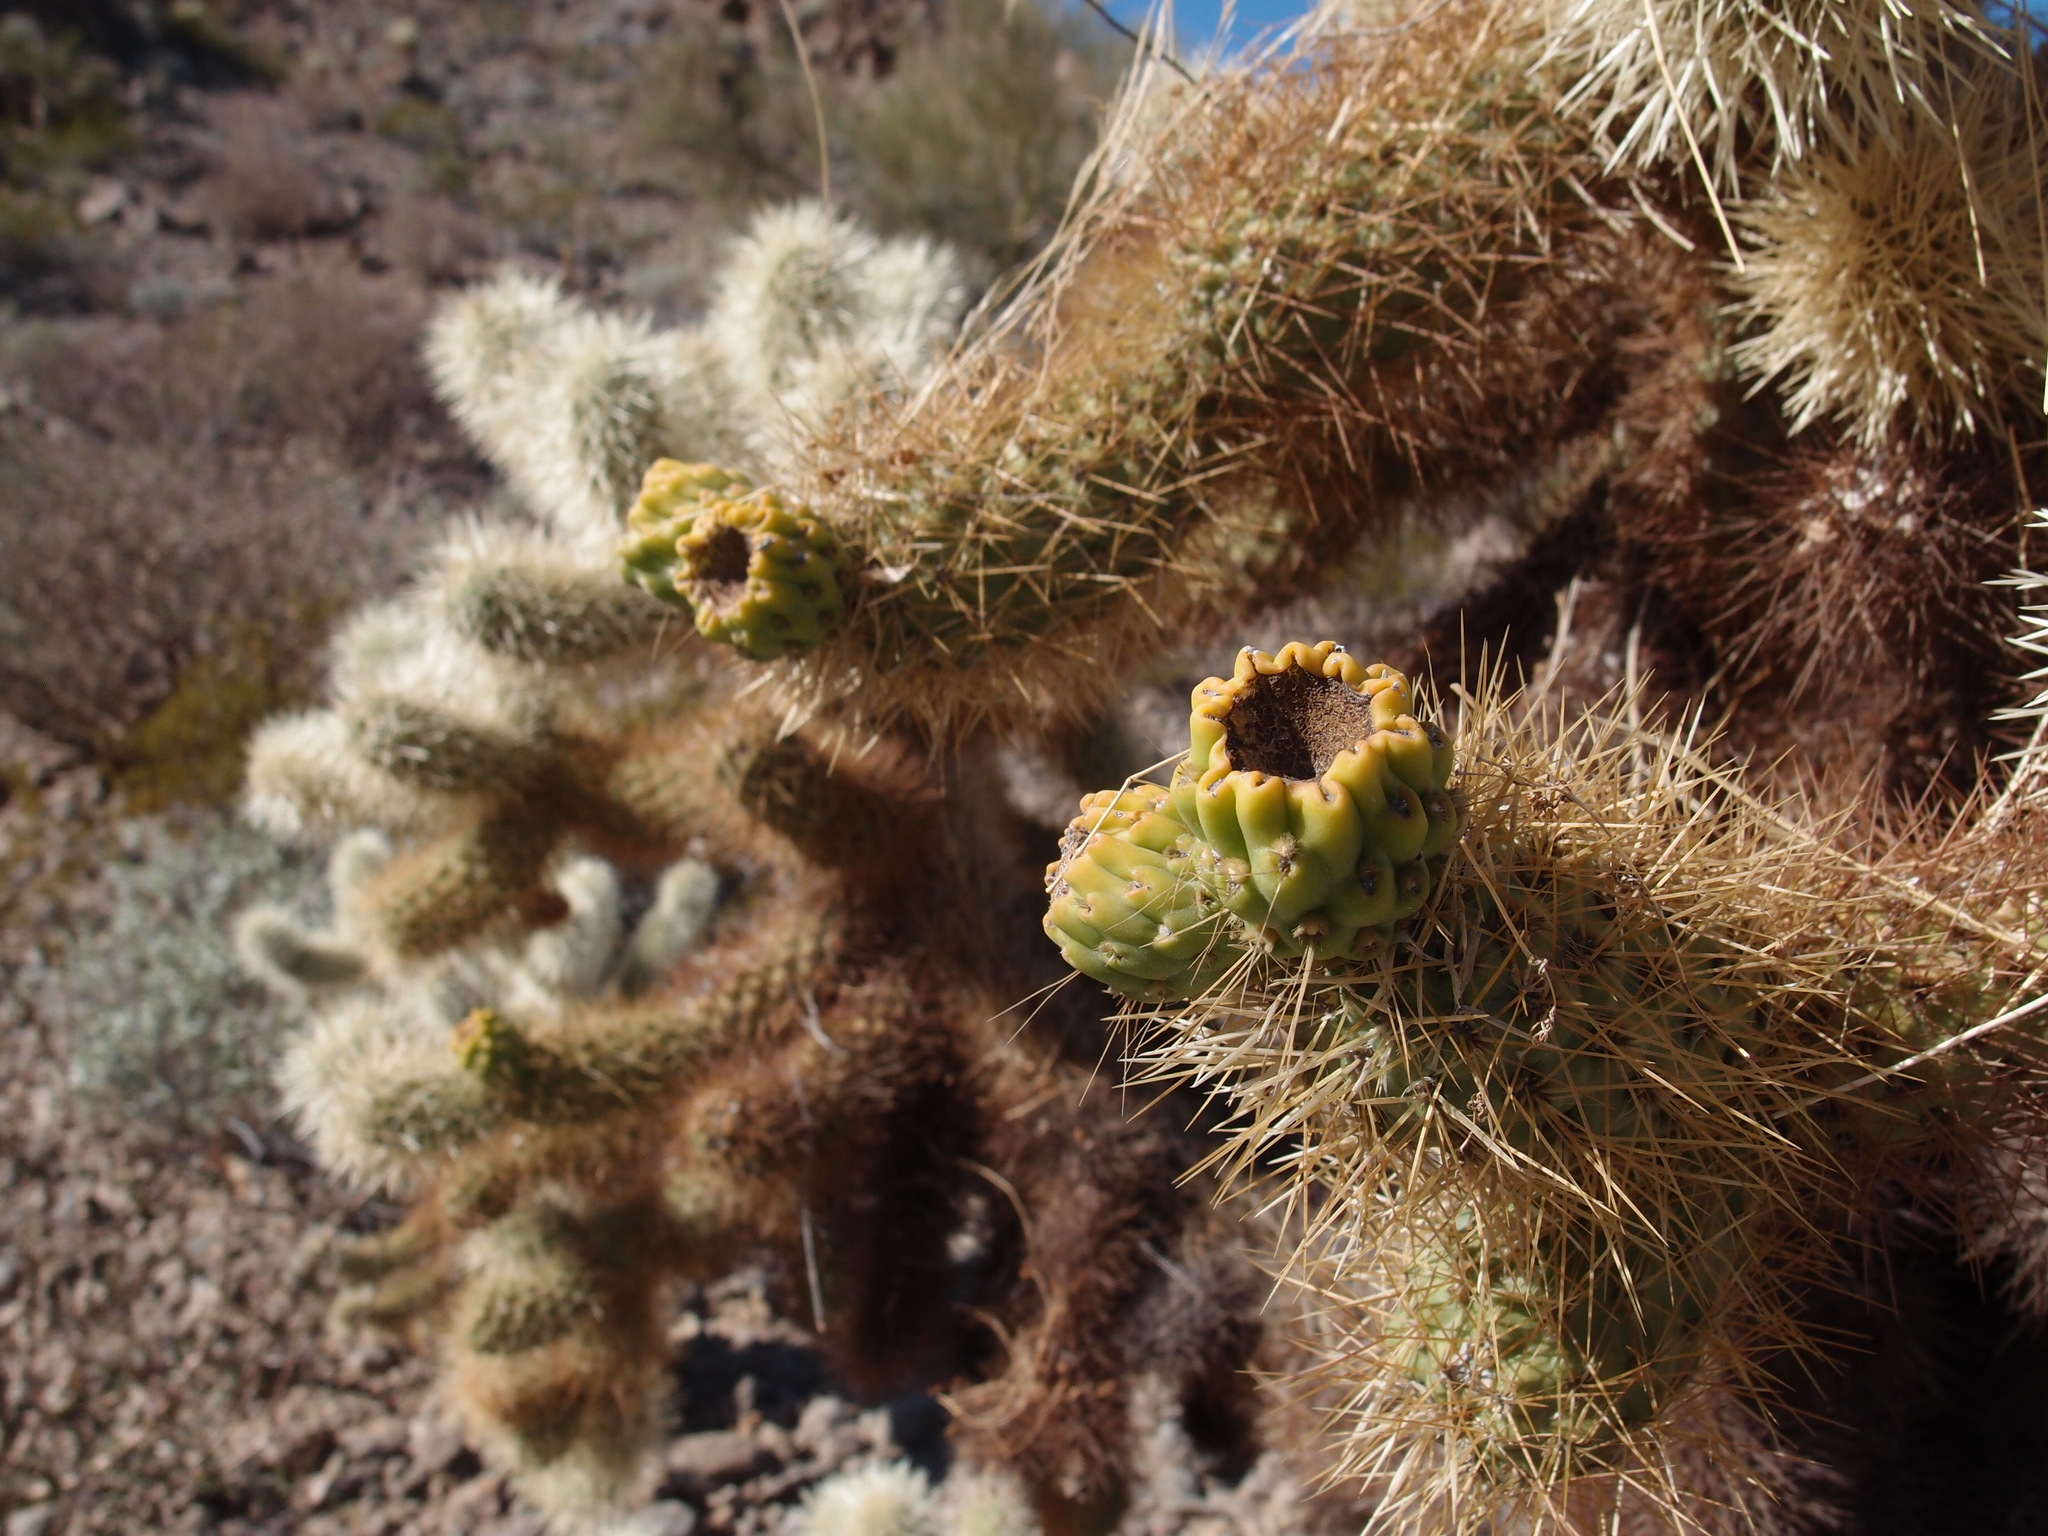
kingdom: Plantae
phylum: Tracheophyta
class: Magnoliopsida
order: Caryophyllales
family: Cactaceae
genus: Cylindropuntia
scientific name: Cylindropuntia fosbergii
